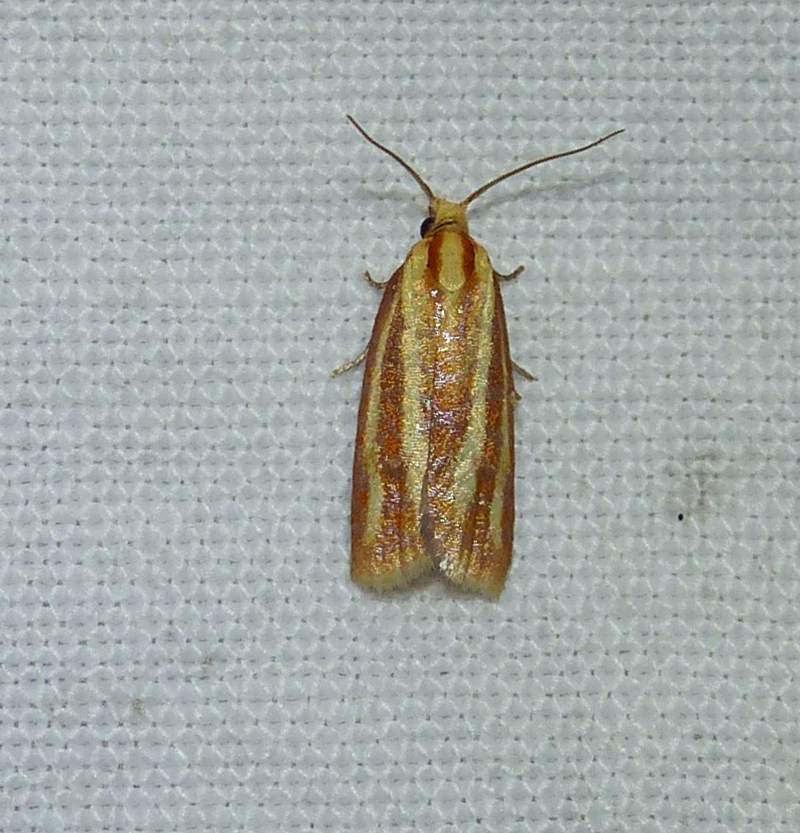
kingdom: Animalia
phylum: Arthropoda
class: Insecta
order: Lepidoptera
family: Tortricidae
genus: Sparganothis
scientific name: Sparganothis tristriata
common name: Three-streaked sparganothis moth
